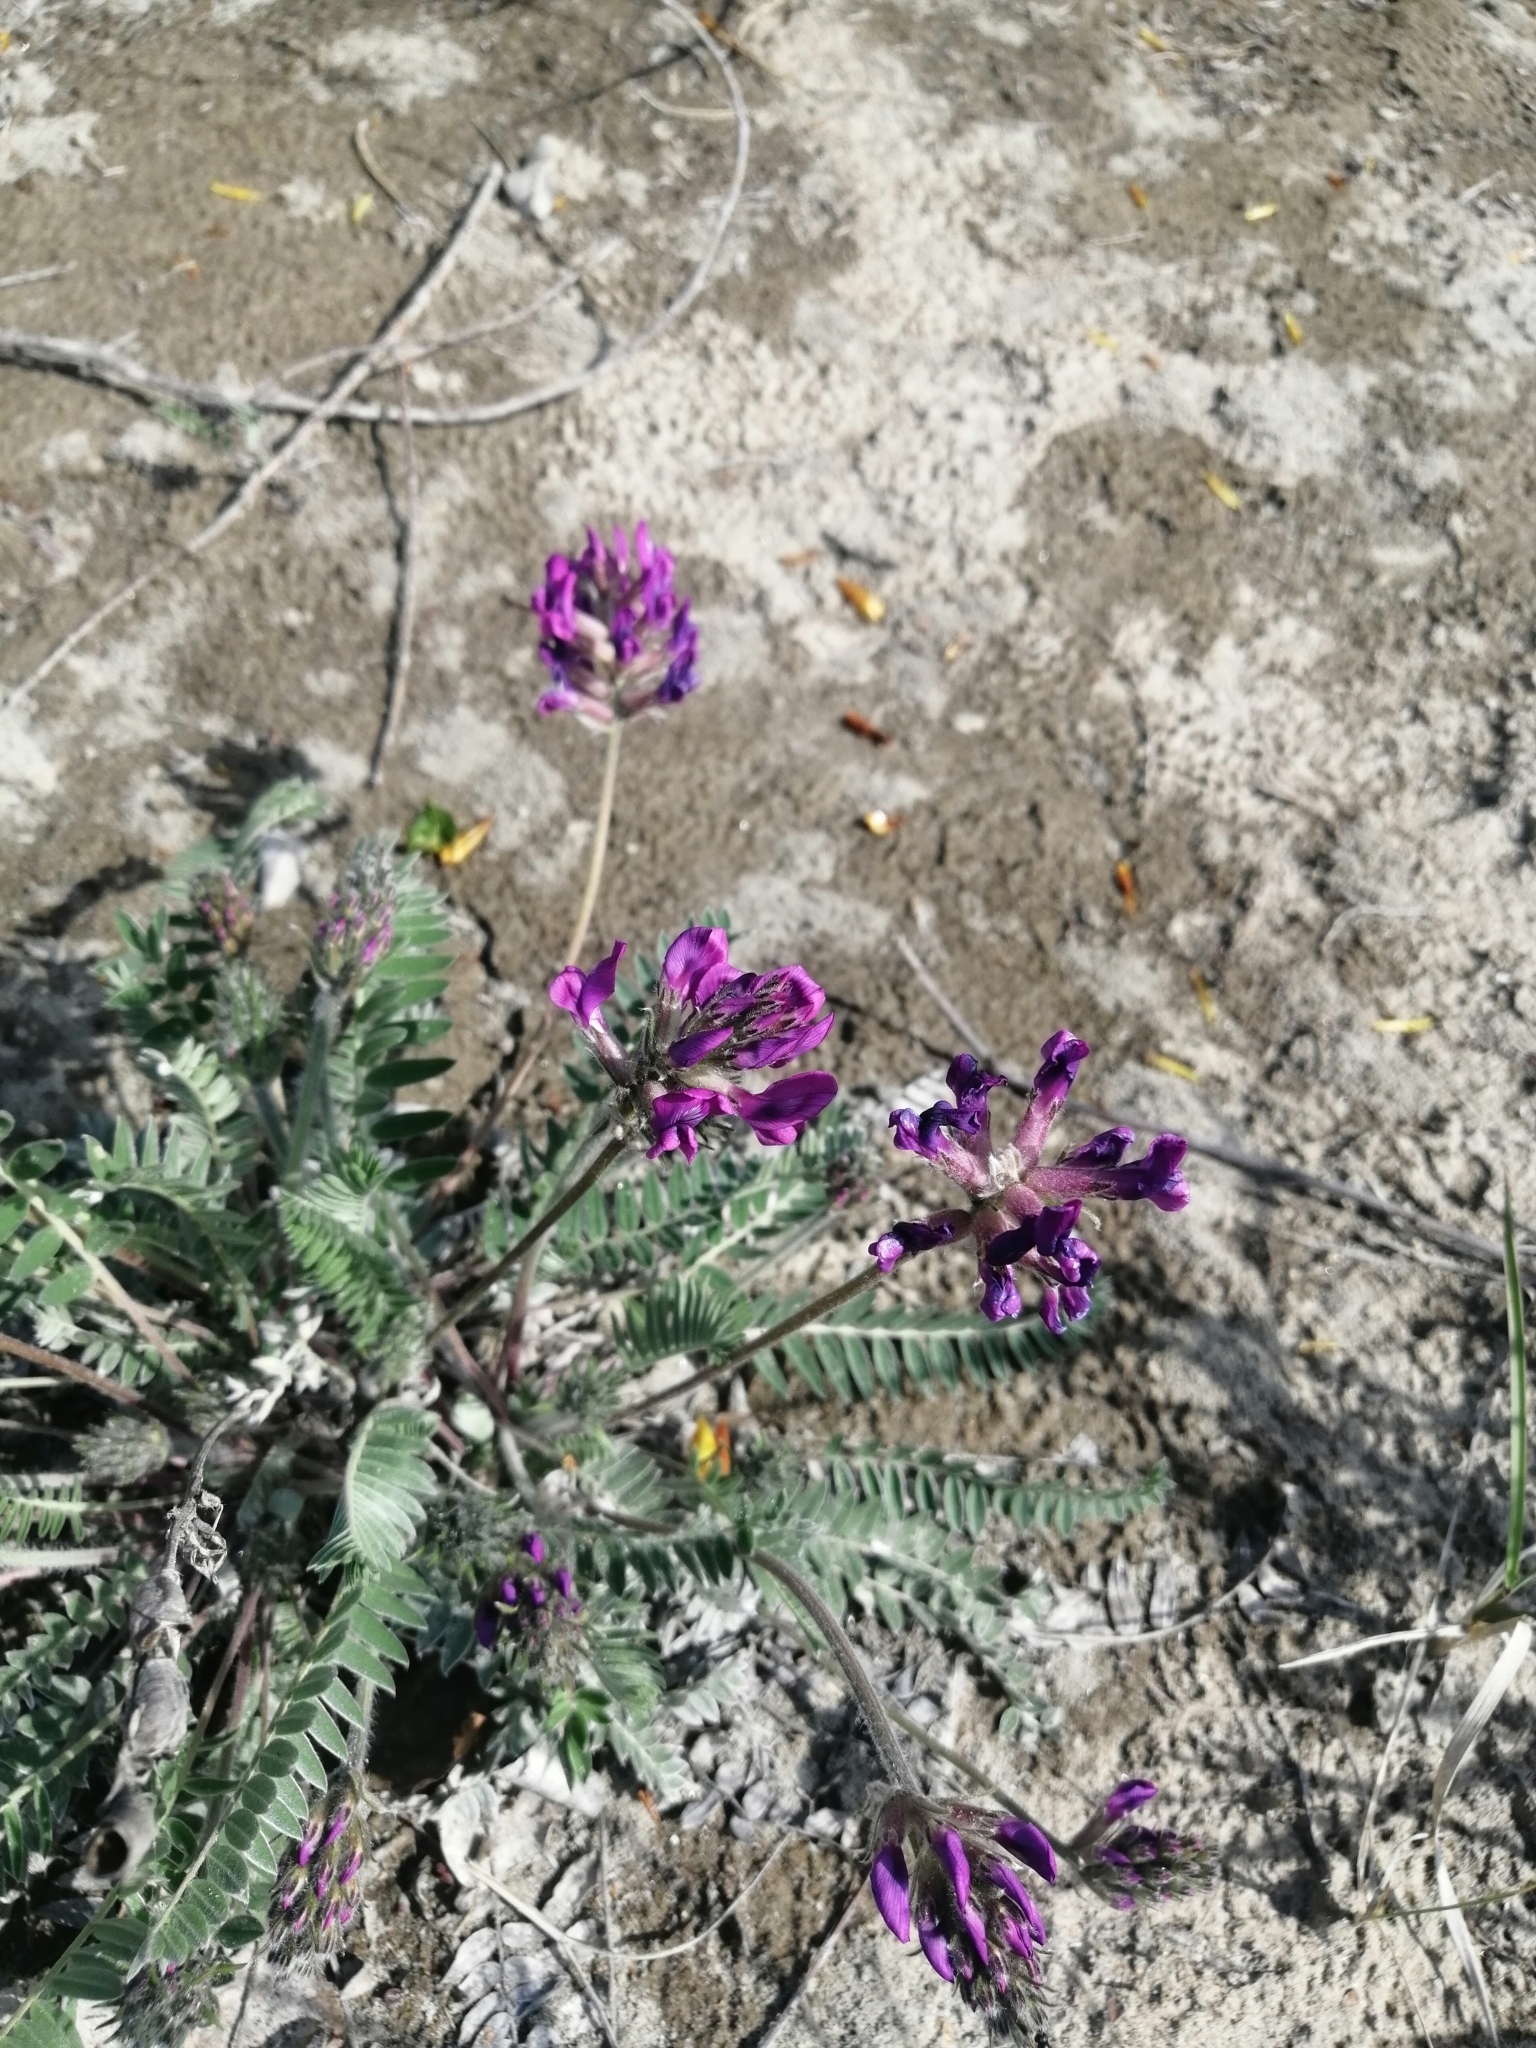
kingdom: Plantae
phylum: Tracheophyta
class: Magnoliopsida
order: Fabales
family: Fabaceae
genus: Oxytropis
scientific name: Oxytropis strobilacea
